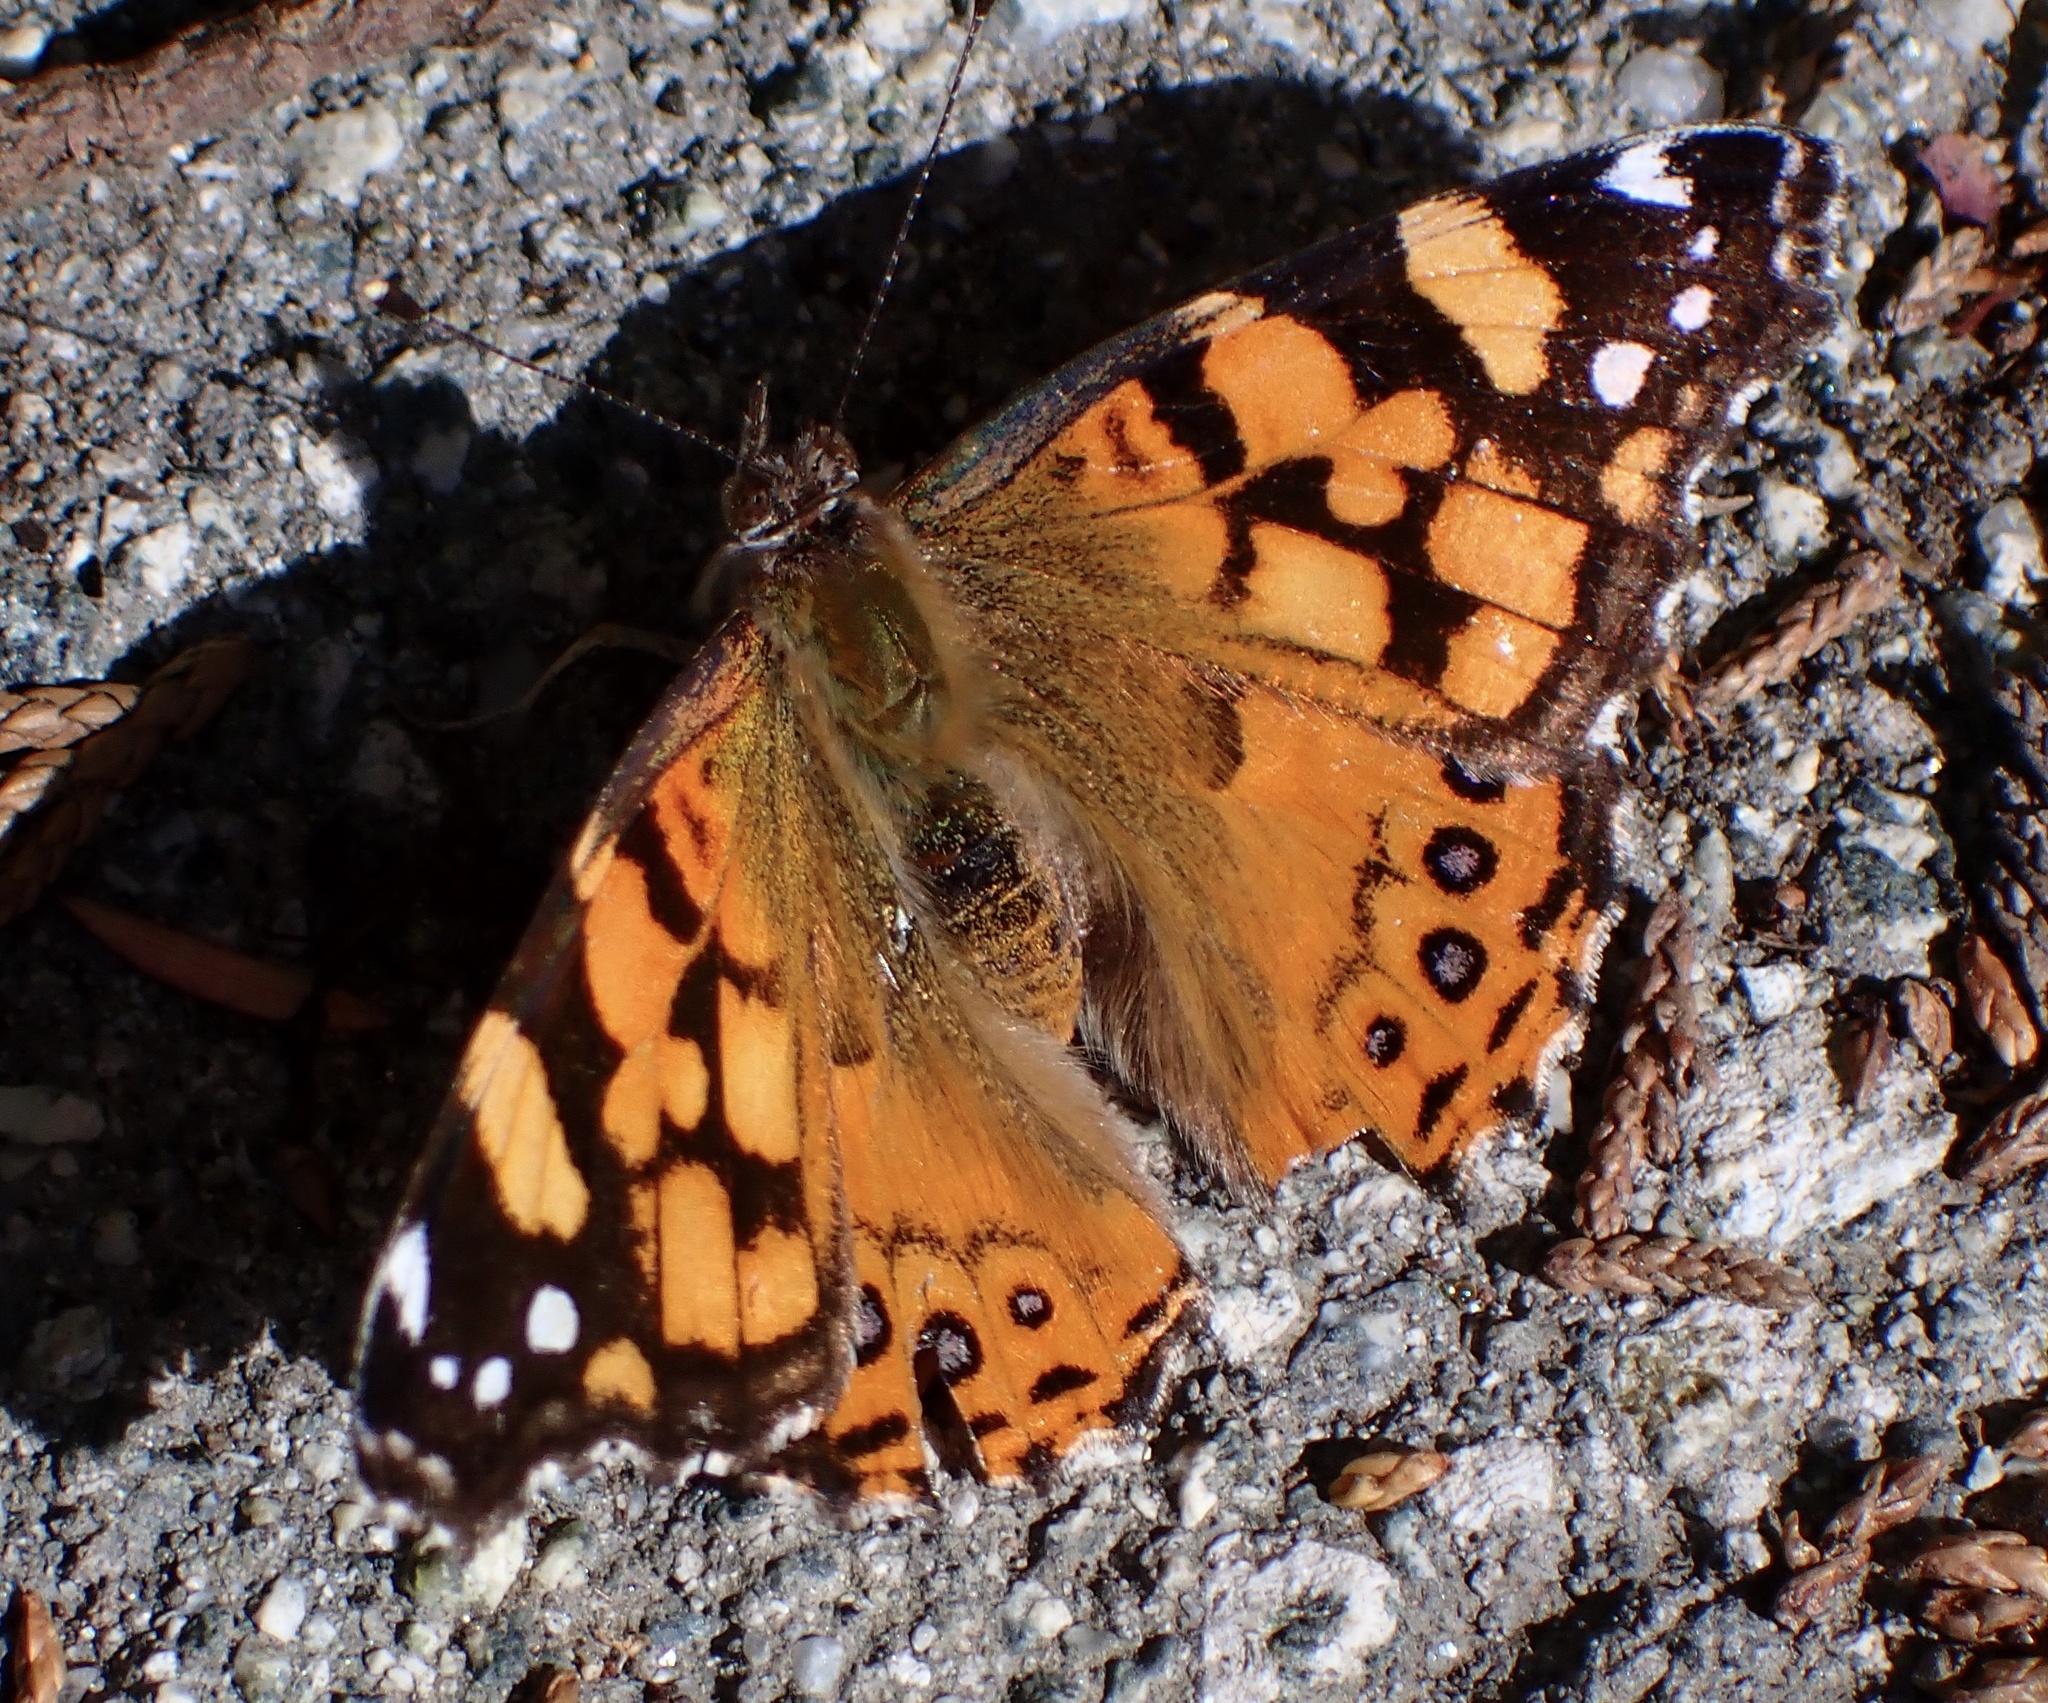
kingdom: Animalia
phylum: Arthropoda
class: Insecta
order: Lepidoptera
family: Nymphalidae
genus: Vanessa
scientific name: Vanessa annabella
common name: West coast lady
